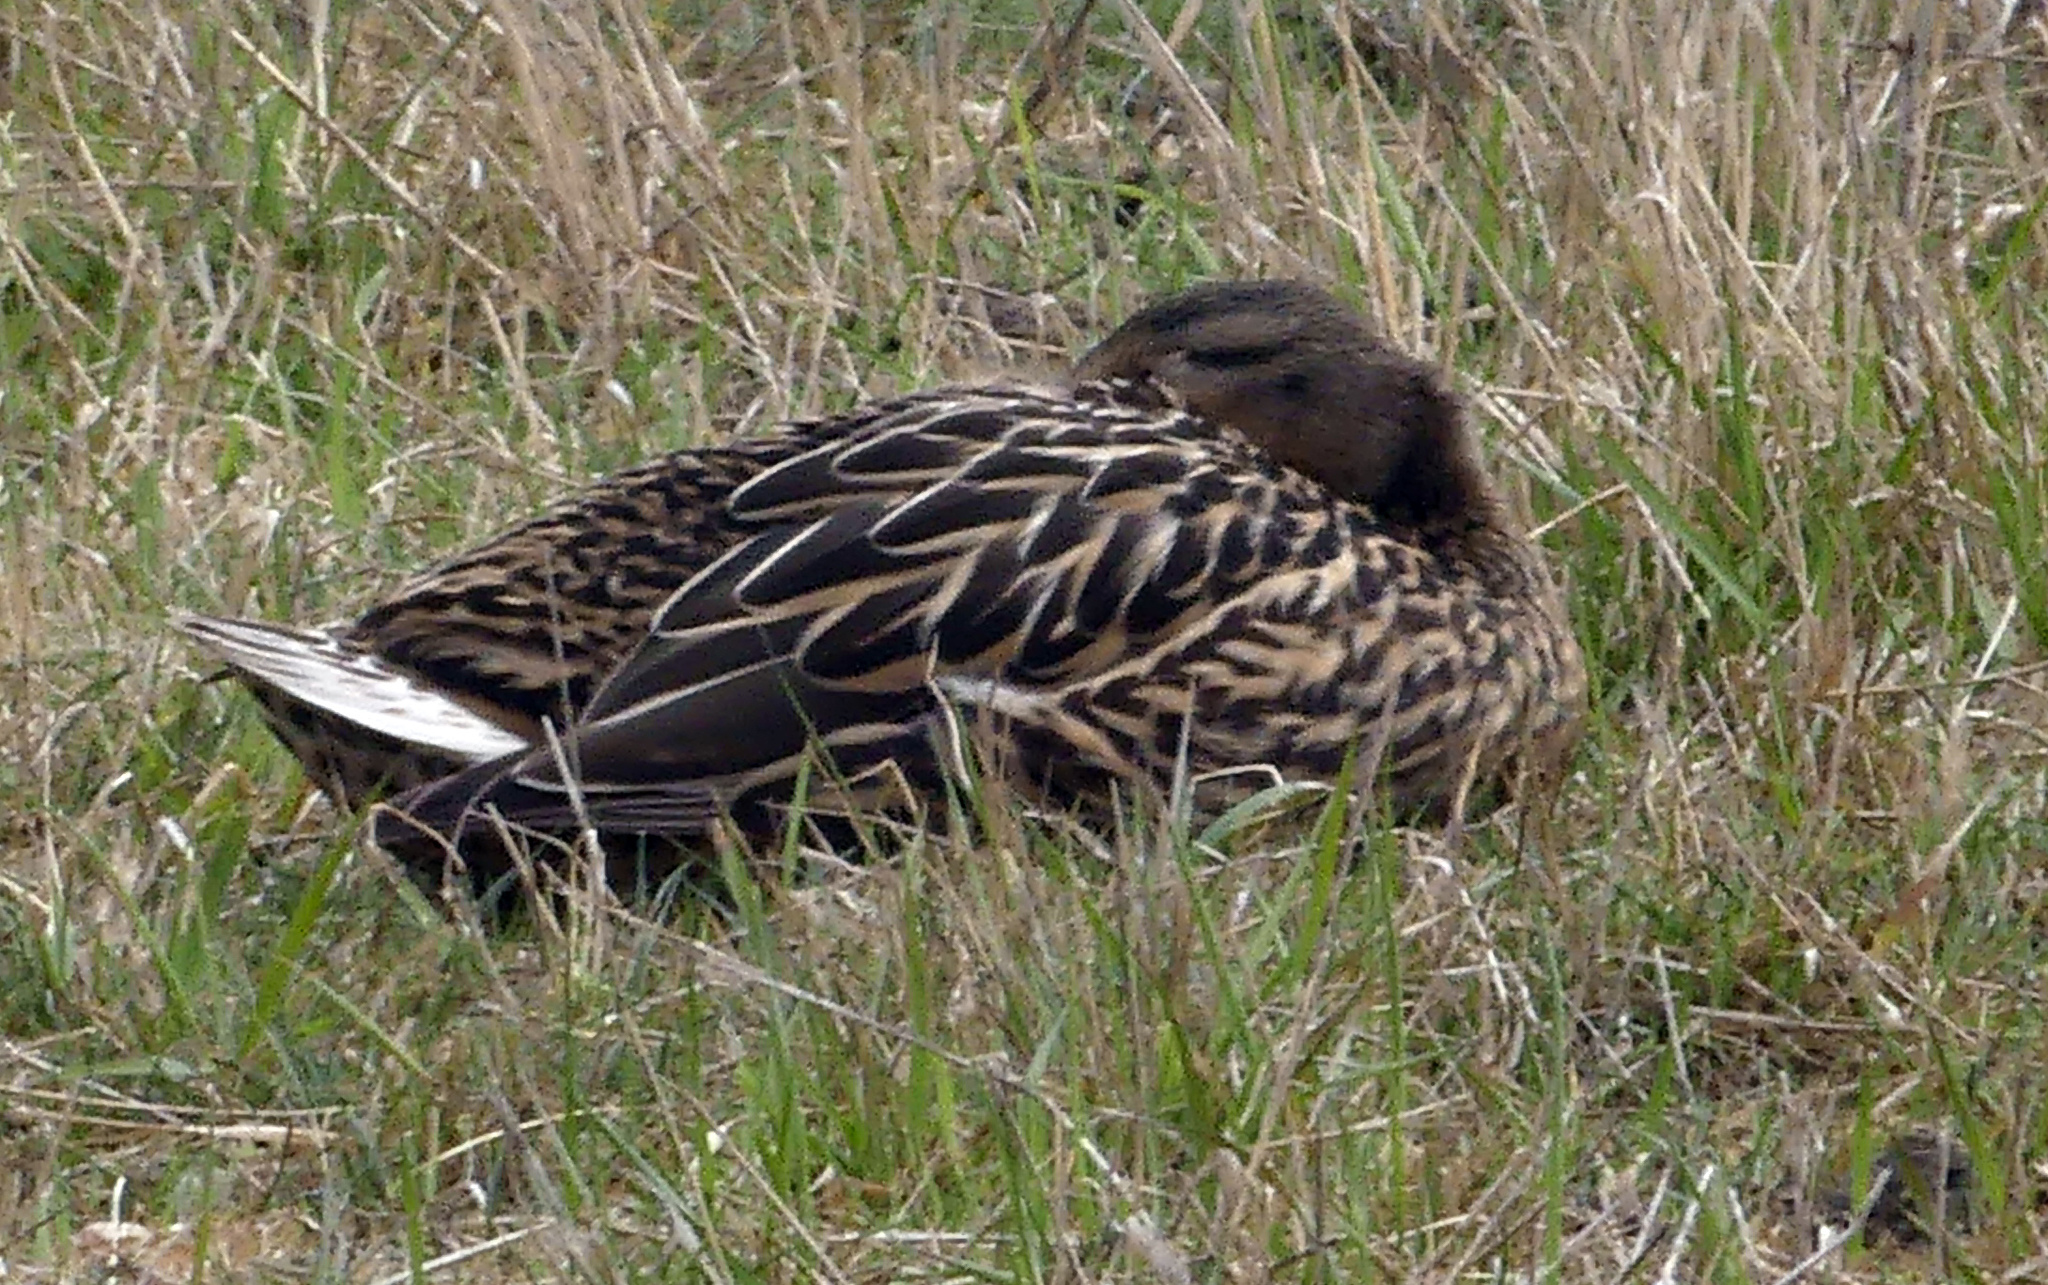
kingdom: Animalia
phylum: Chordata
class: Aves
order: Anseriformes
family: Anatidae
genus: Anas
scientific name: Anas platyrhynchos
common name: Mallard
